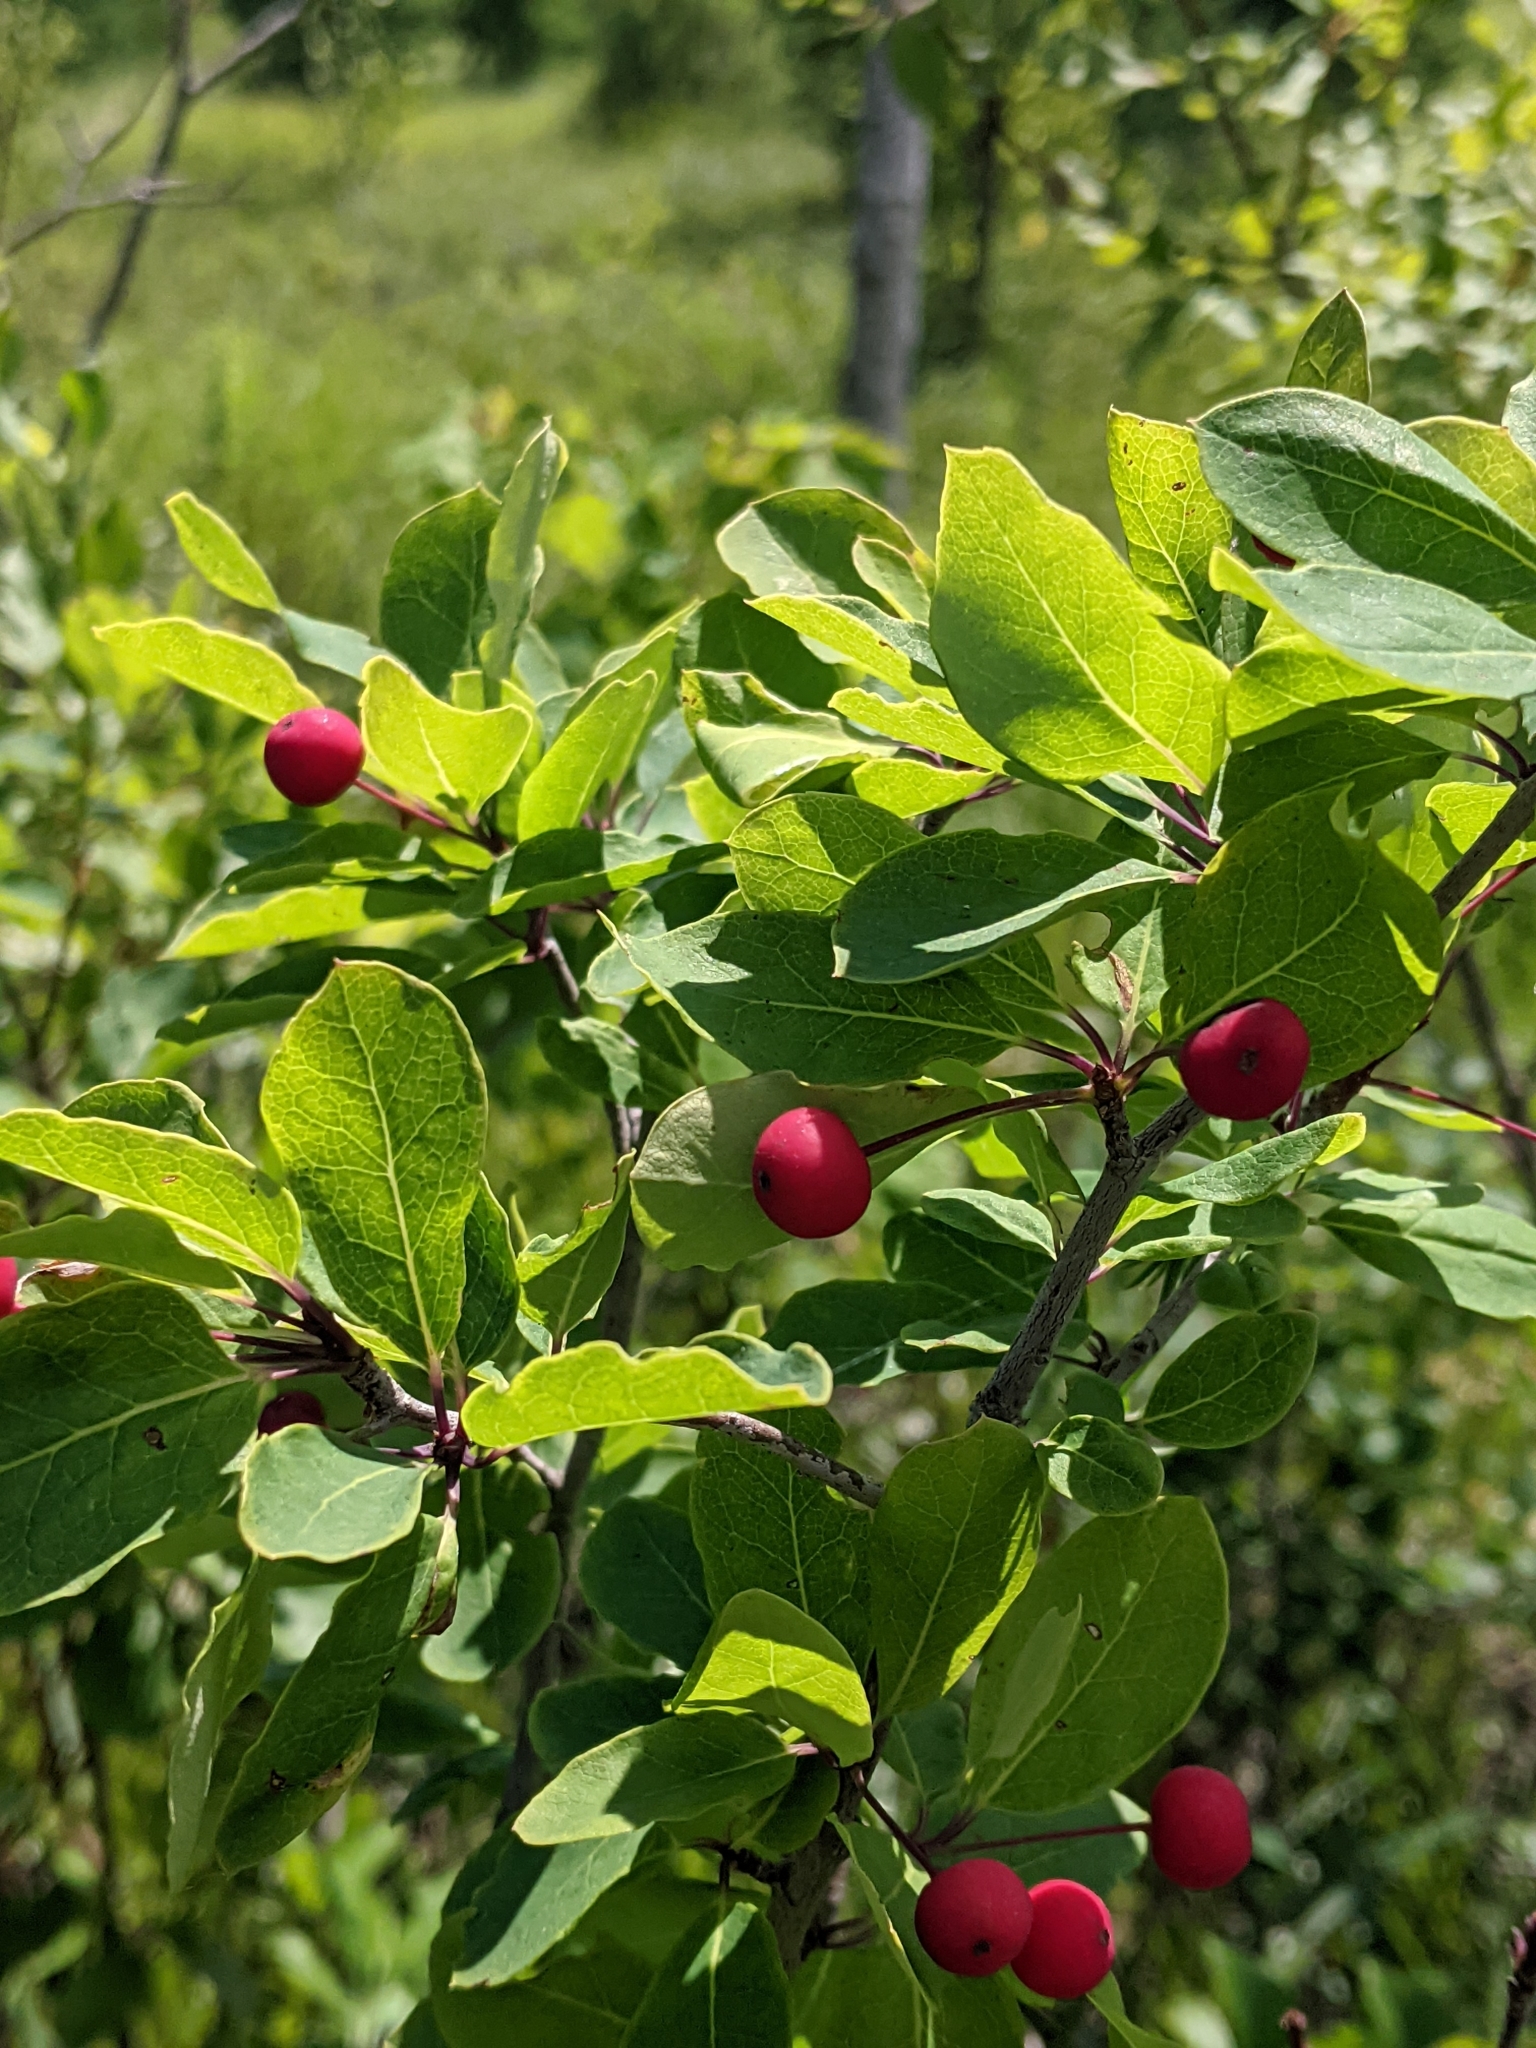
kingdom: Plantae
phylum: Tracheophyta
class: Magnoliopsida
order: Aquifoliales
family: Aquifoliaceae
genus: Ilex
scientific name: Ilex mucronata
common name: Catberry
